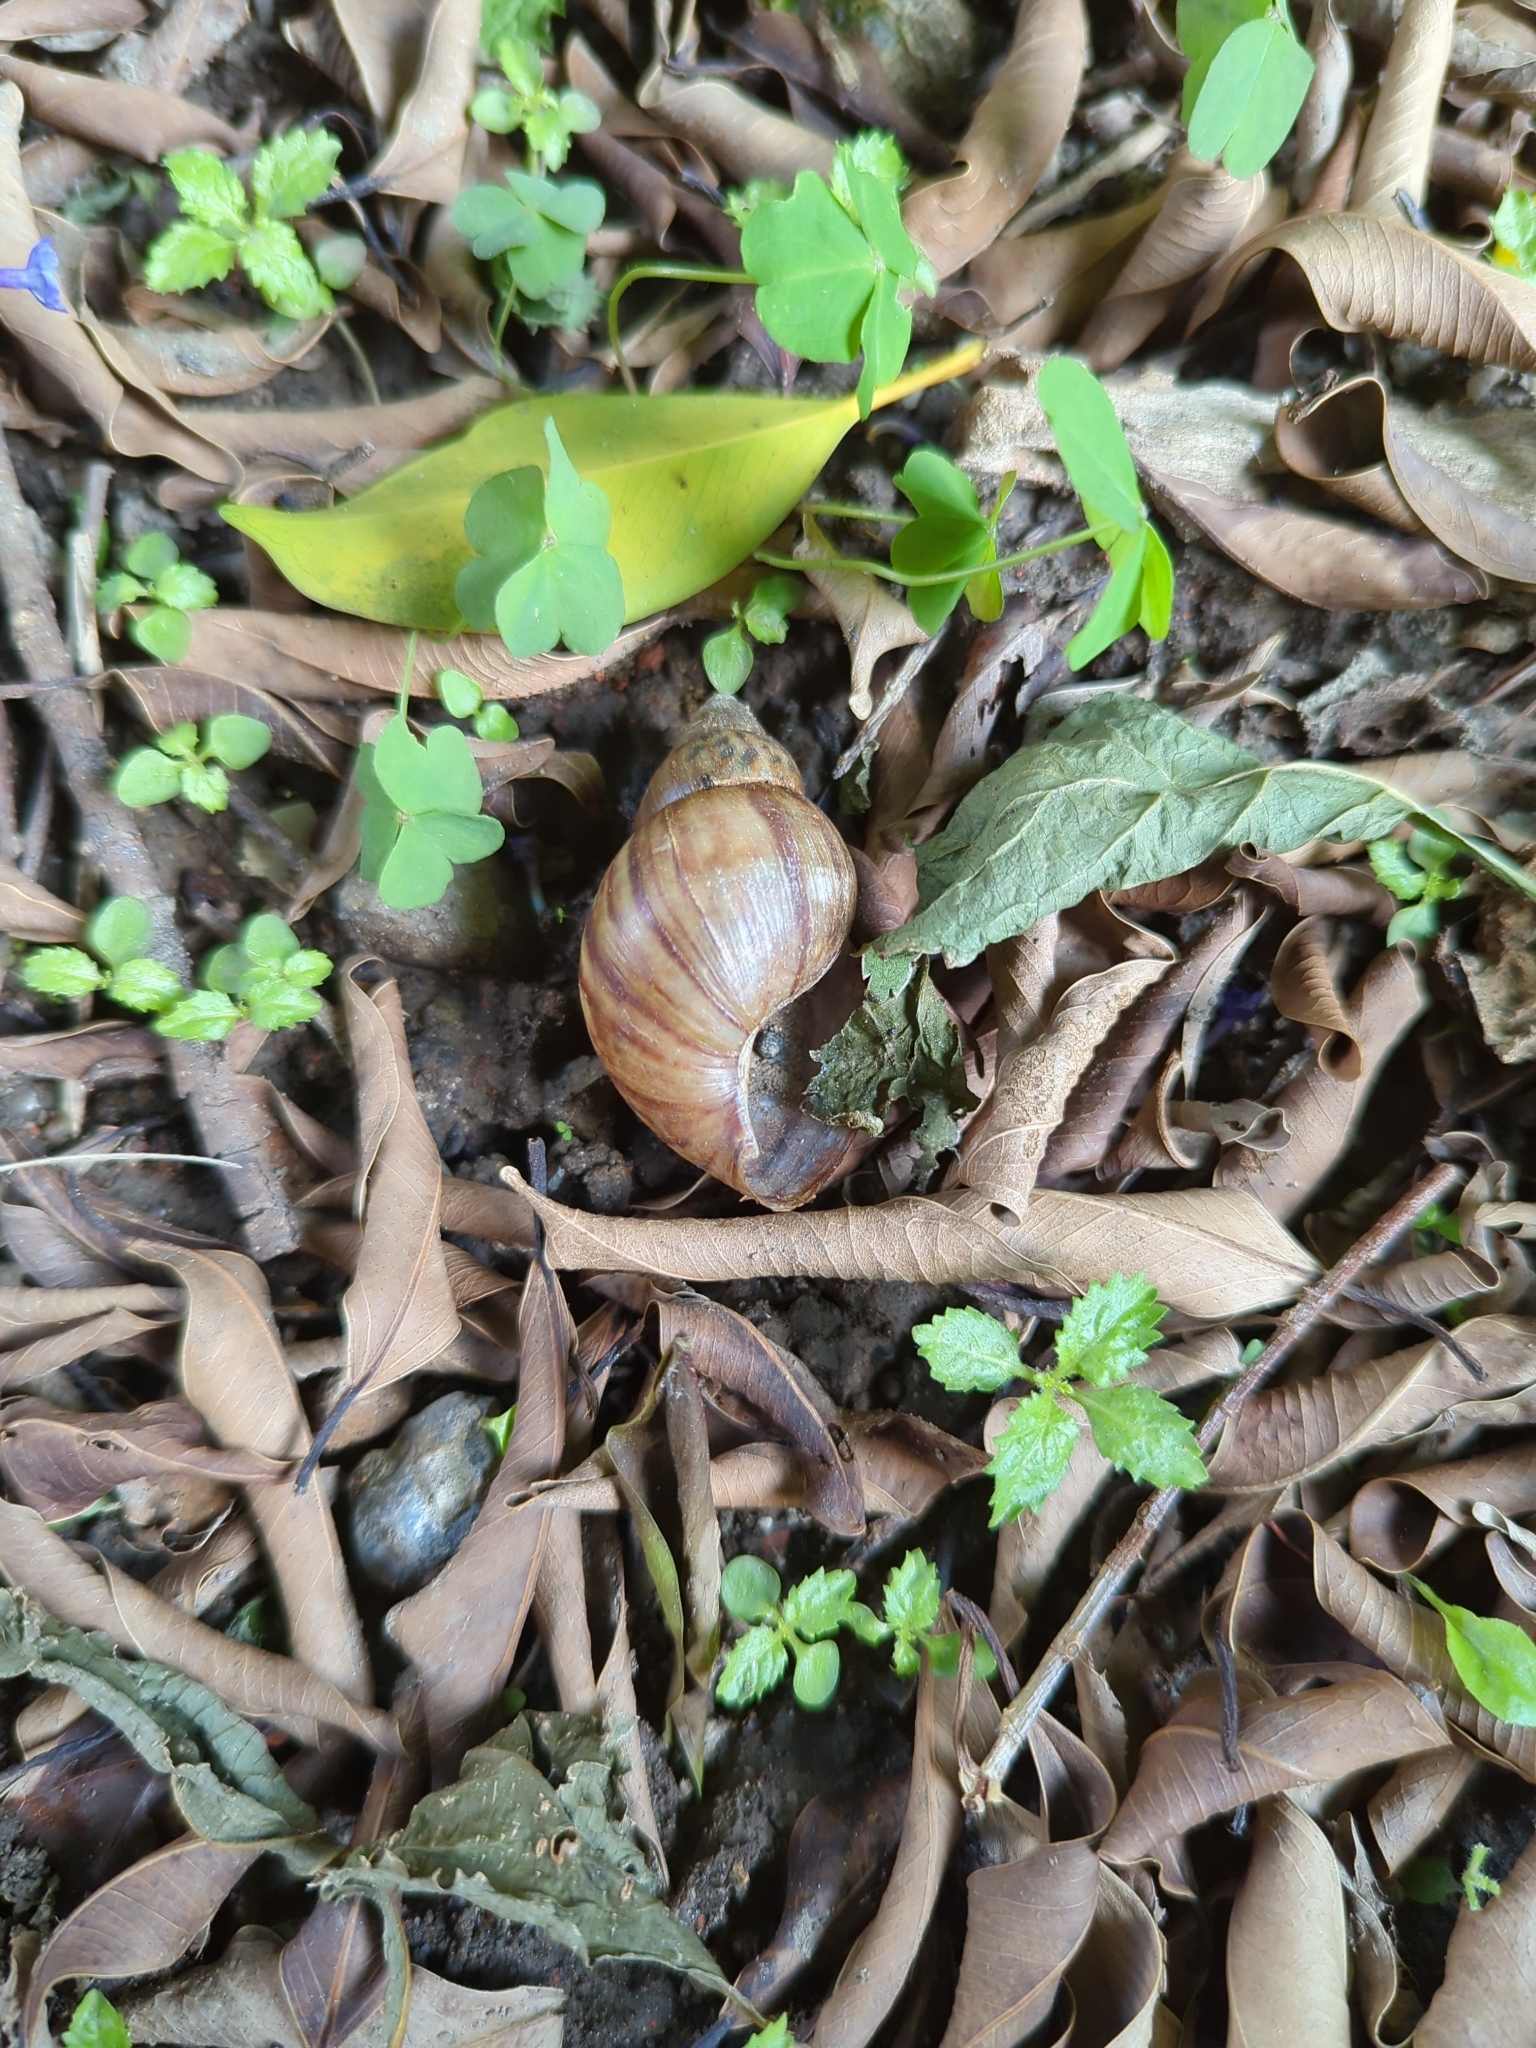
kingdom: Animalia
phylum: Mollusca
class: Gastropoda
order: Stylommatophora
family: Achatinidae
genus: Lissachatina
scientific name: Lissachatina fulica
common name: Giant african snail
